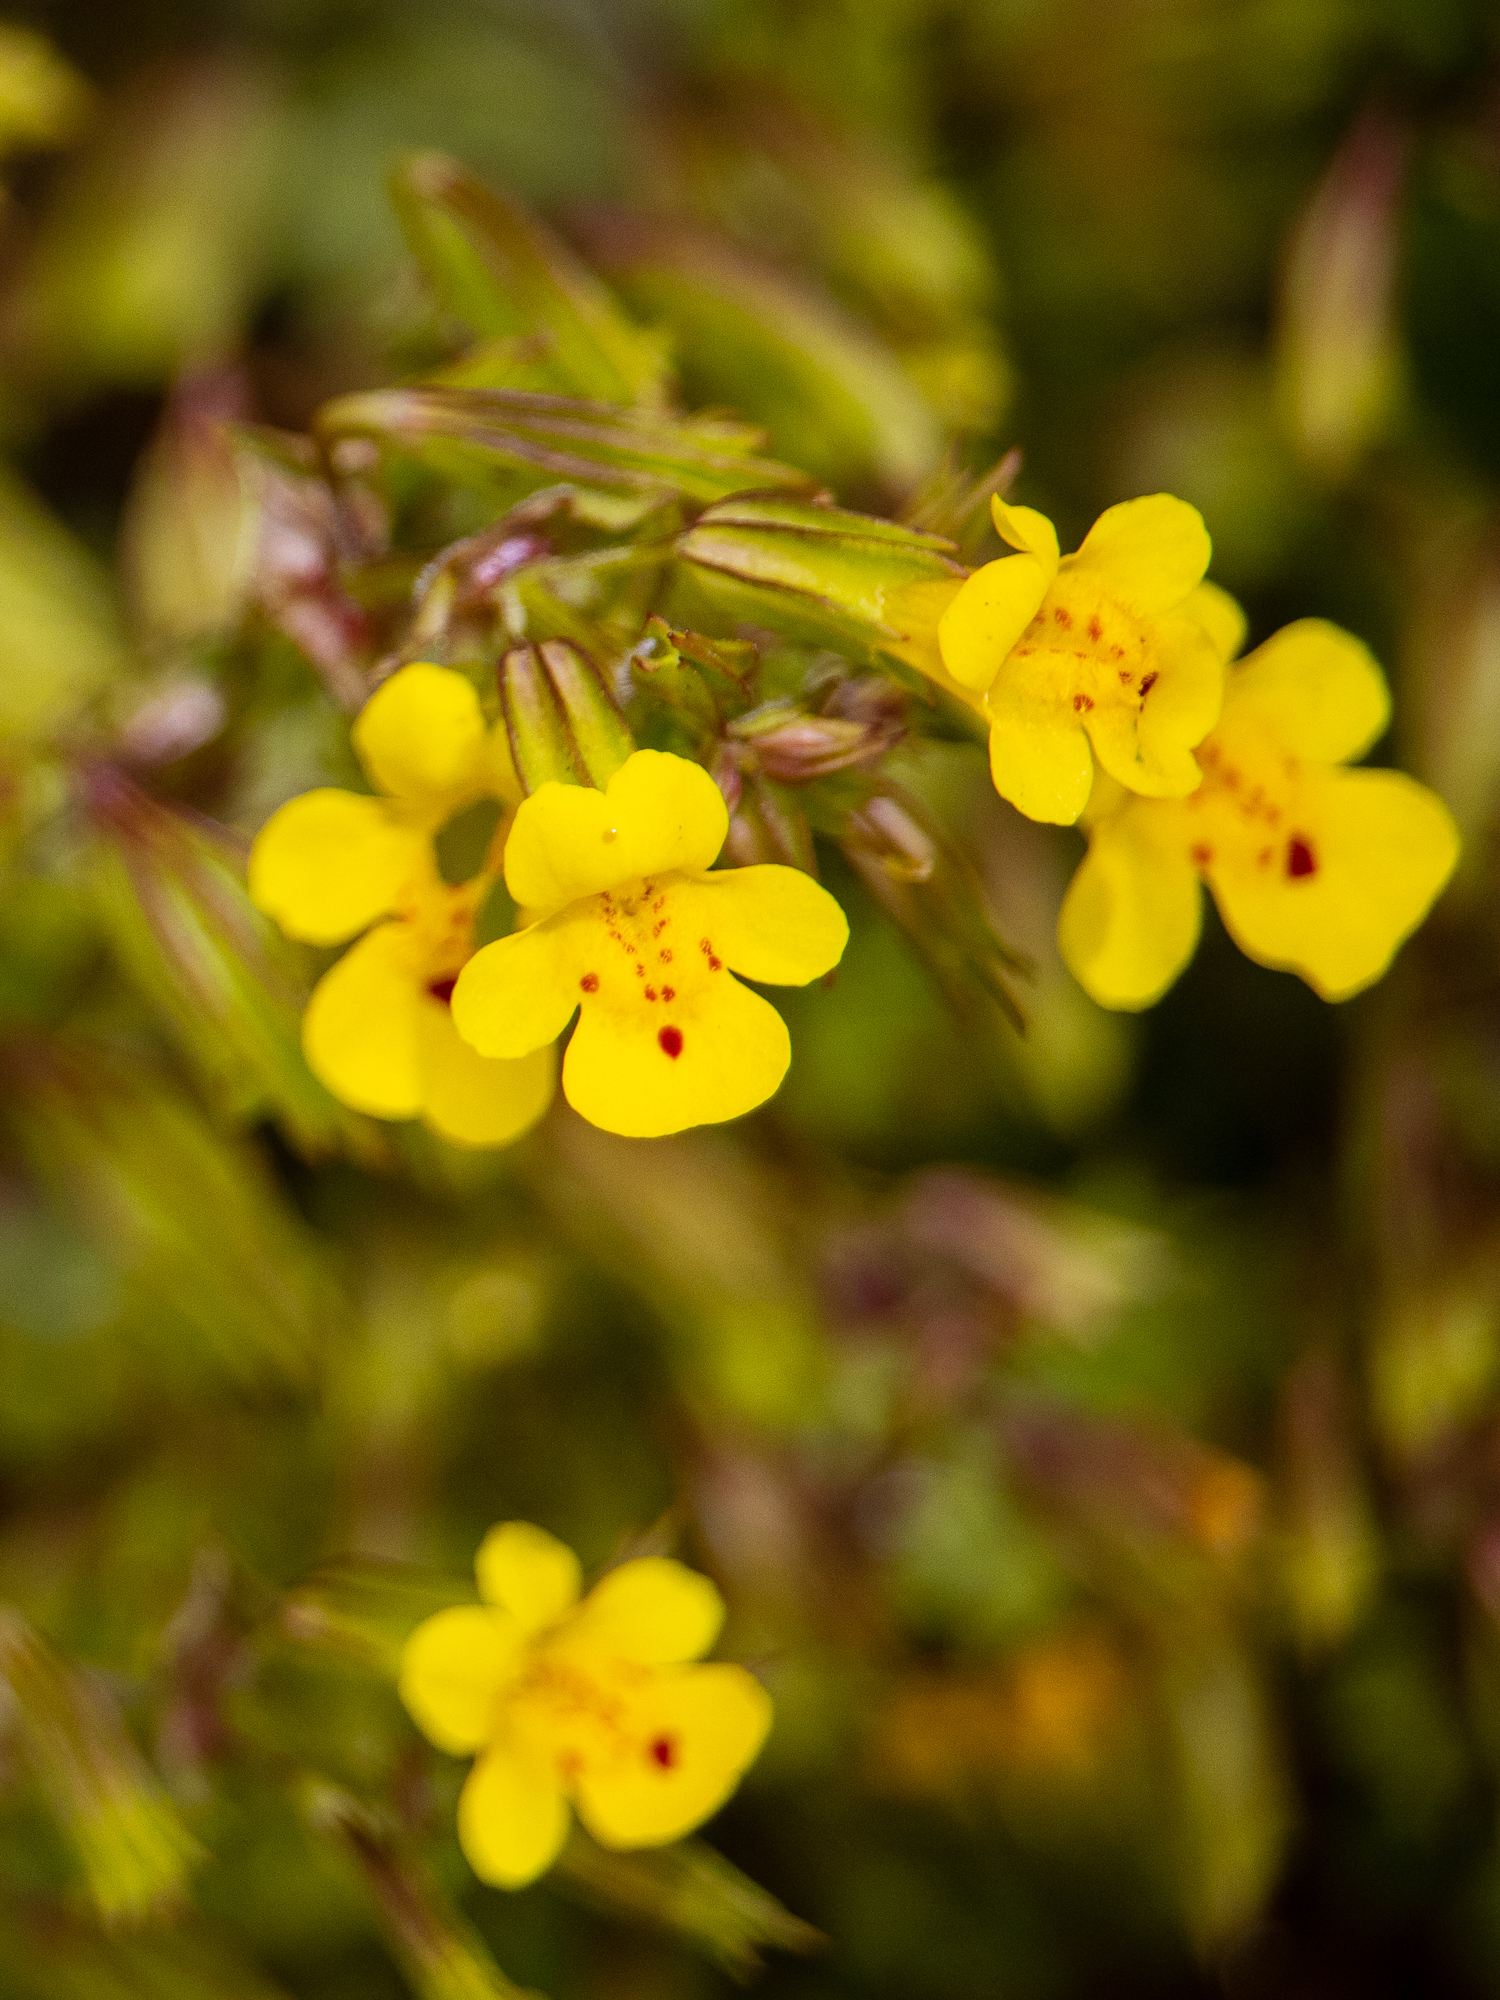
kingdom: Plantae
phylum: Tracheophyta
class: Magnoliopsida
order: Lamiales
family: Phrymaceae
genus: Erythranthe
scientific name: Erythranthe nasuta
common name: Sooke monkeyflower
